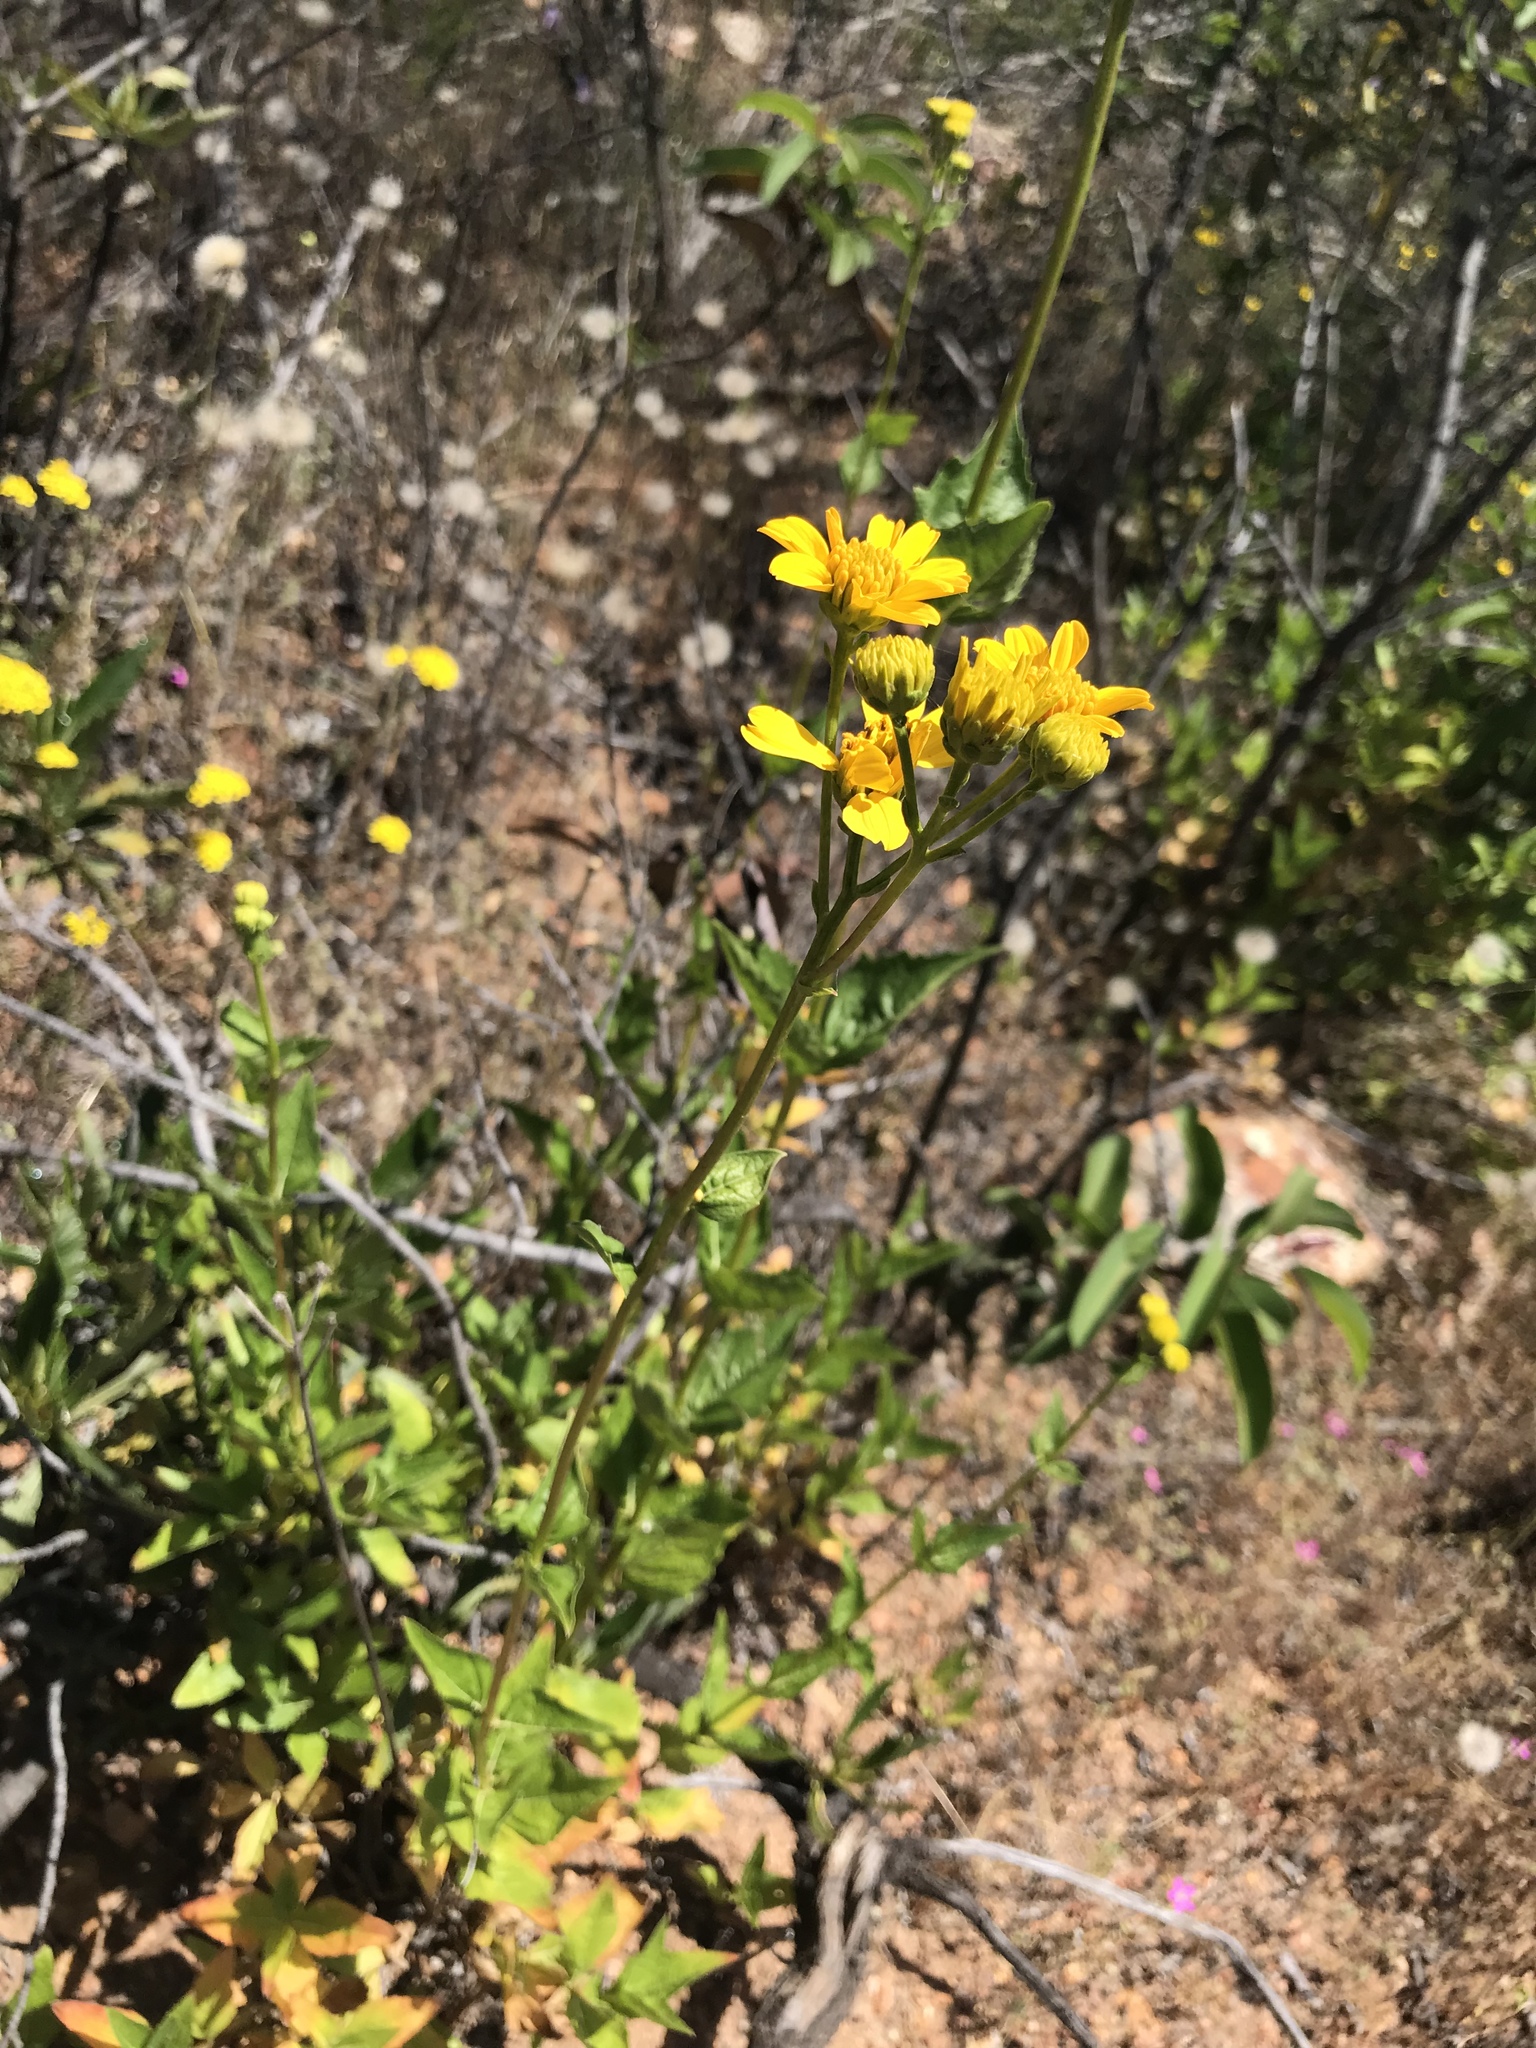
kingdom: Plantae
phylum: Tracheophyta
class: Magnoliopsida
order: Asterales
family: Asteraceae
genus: Verbesina
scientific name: Verbesina dissita
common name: Big-leaf crownbeard
